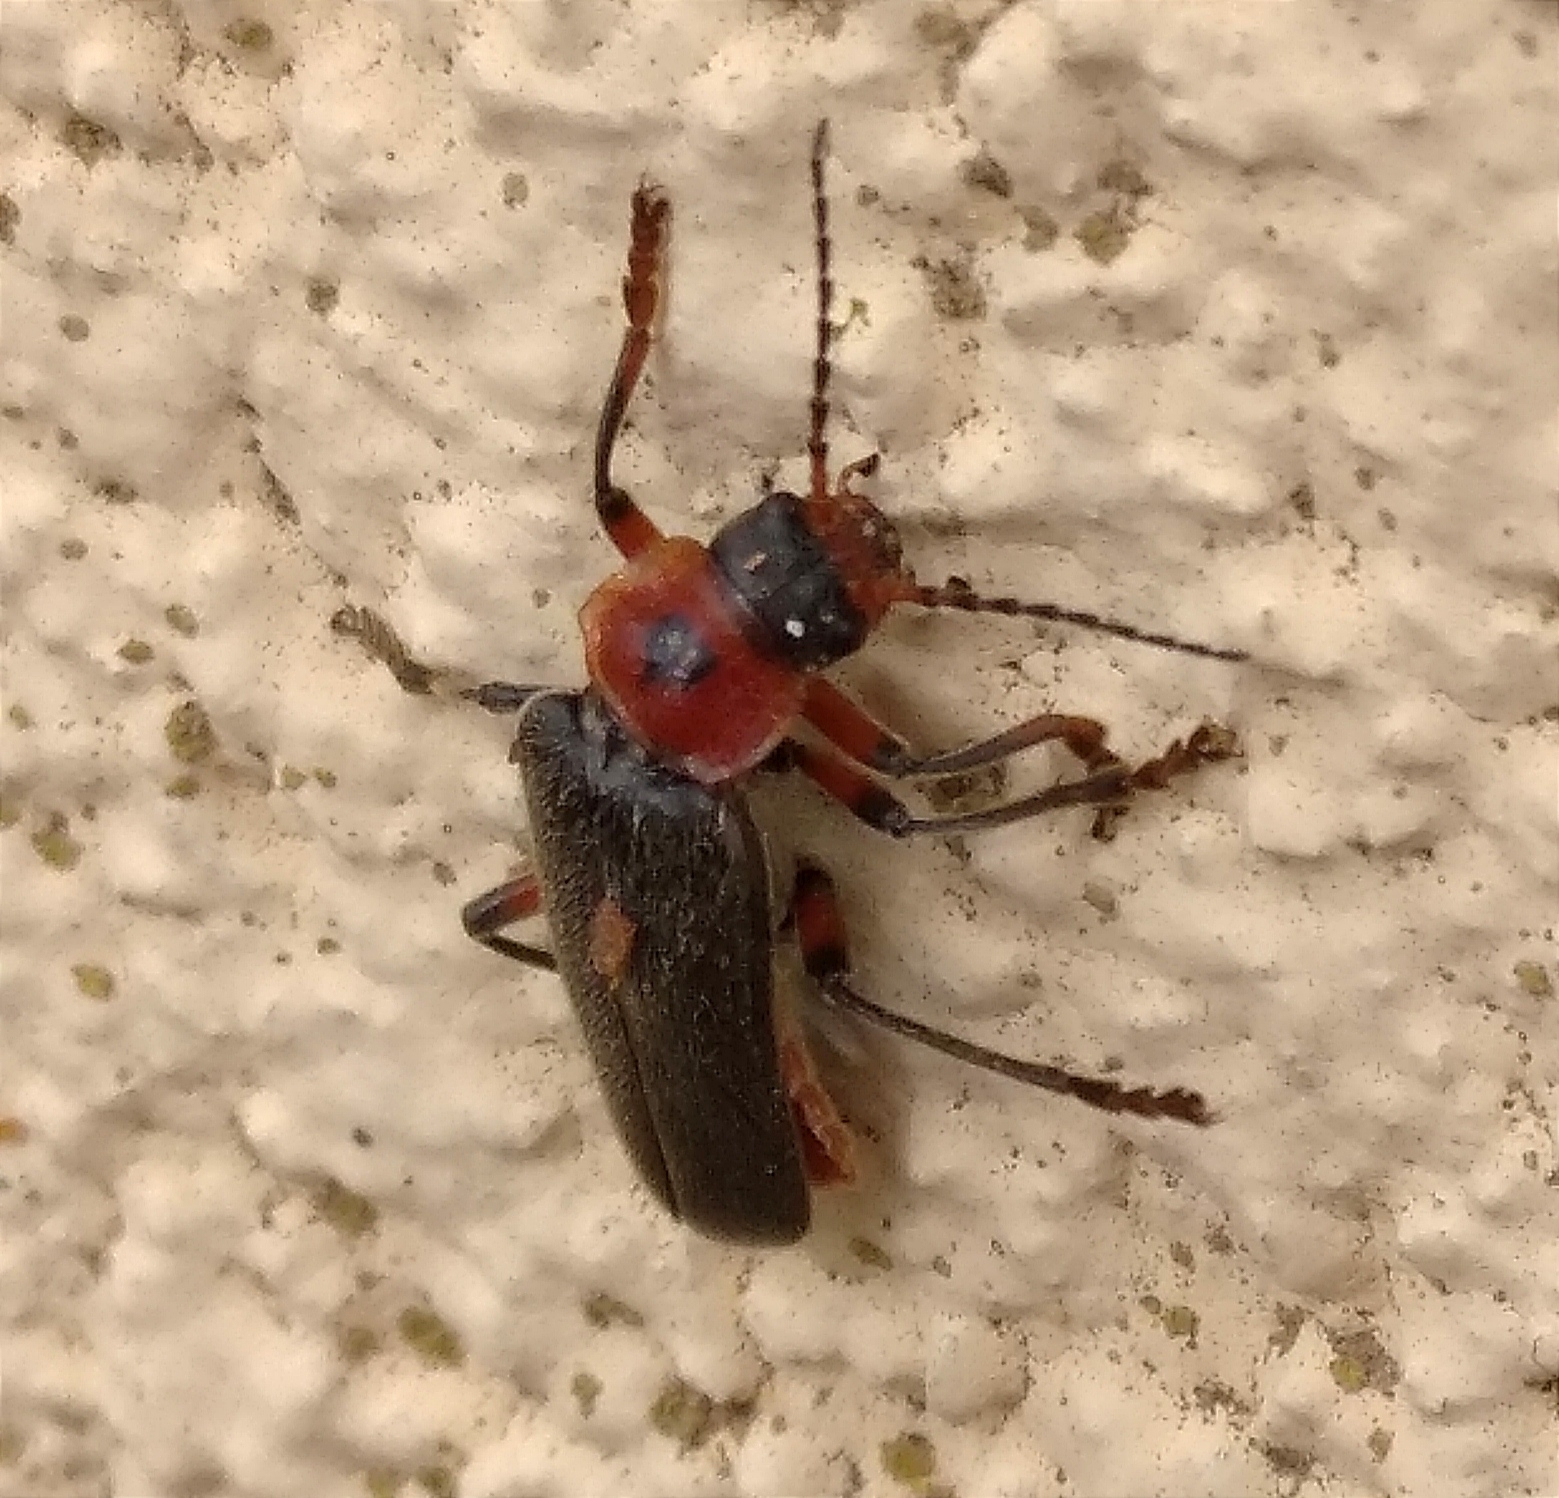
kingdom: Animalia
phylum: Arthropoda
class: Insecta
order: Coleoptera
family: Cantharidae
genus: Cantharis
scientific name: Cantharis rustica
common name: Soldier beetle
